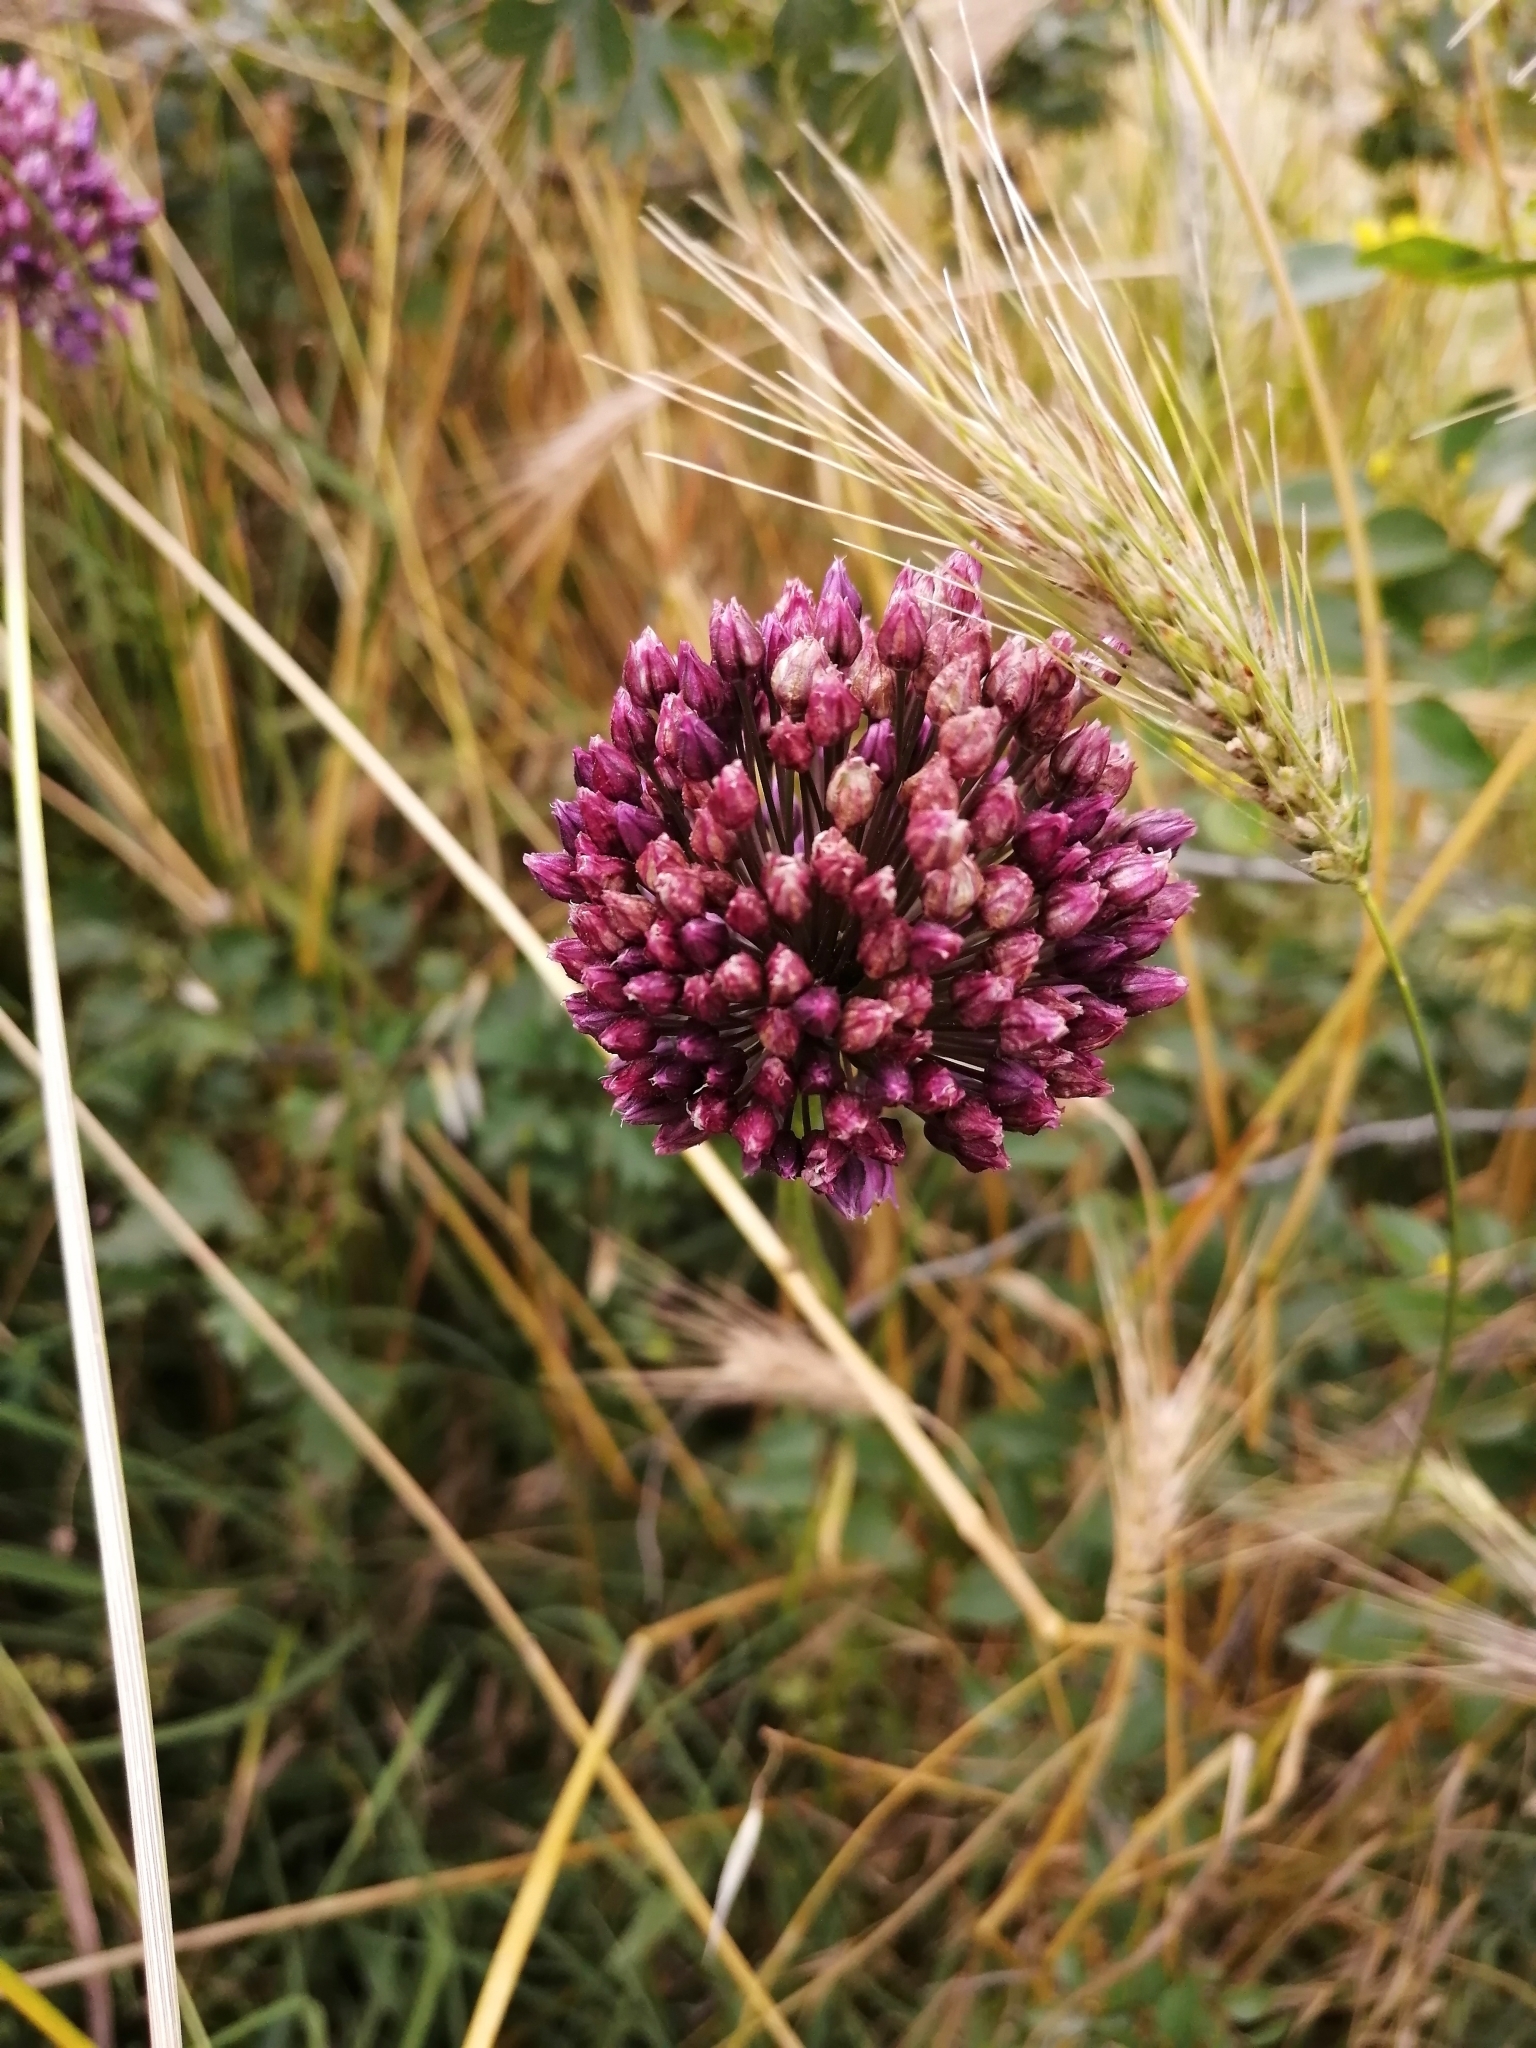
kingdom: Plantae
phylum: Tracheophyta
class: Liliopsida
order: Asparagales
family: Amaryllidaceae
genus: Allium
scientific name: Allium rotundum
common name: Sand leek
